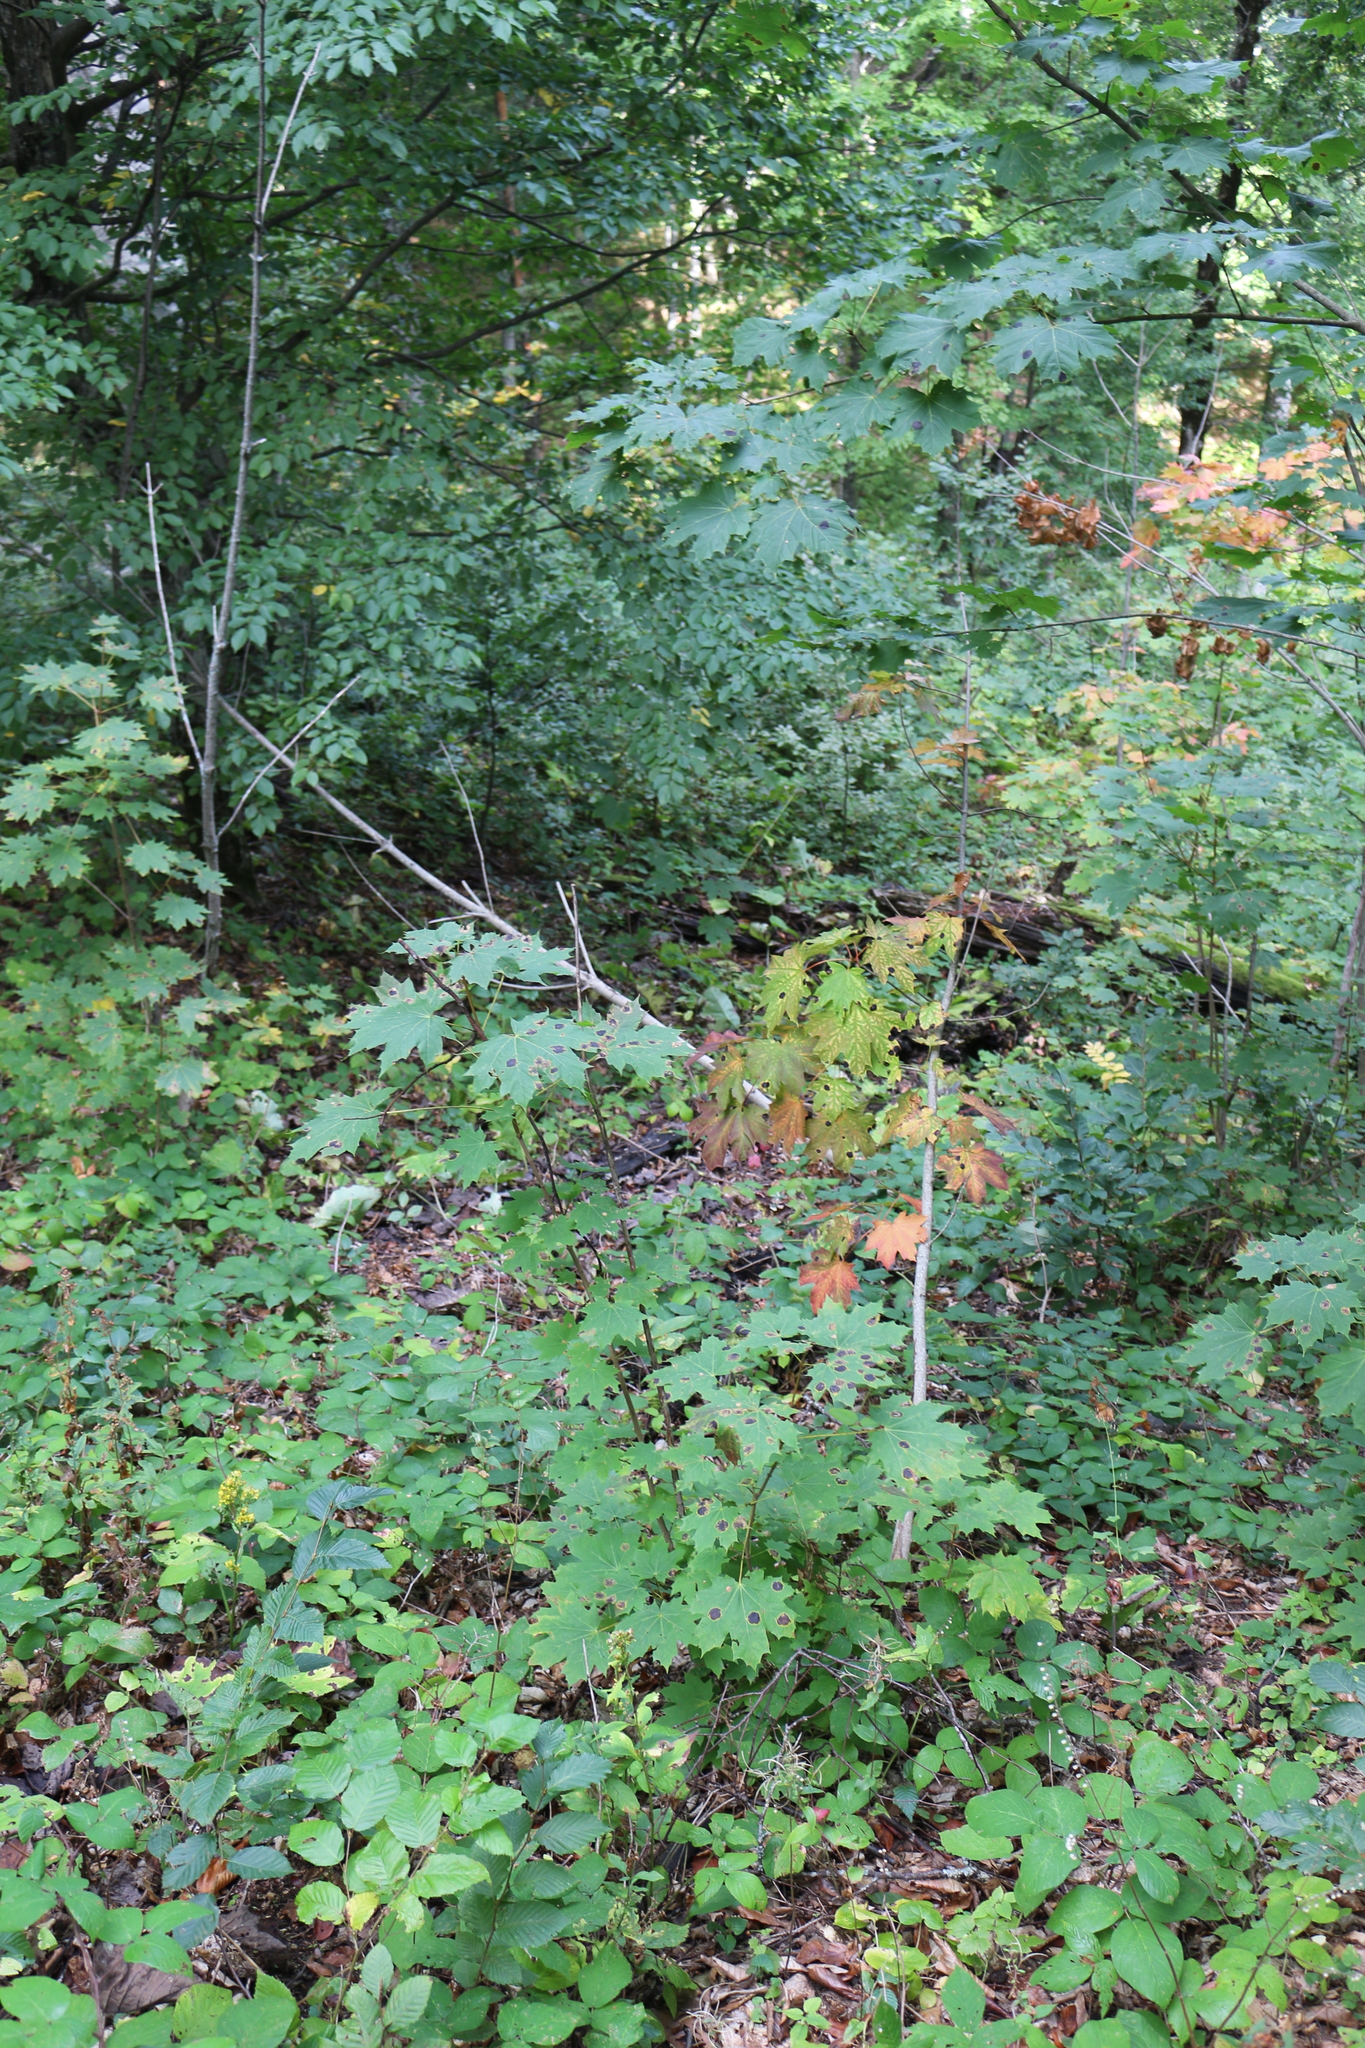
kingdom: Plantae
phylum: Tracheophyta
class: Magnoliopsida
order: Sapindales
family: Sapindaceae
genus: Acer
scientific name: Acer platanoides
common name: Norway maple
